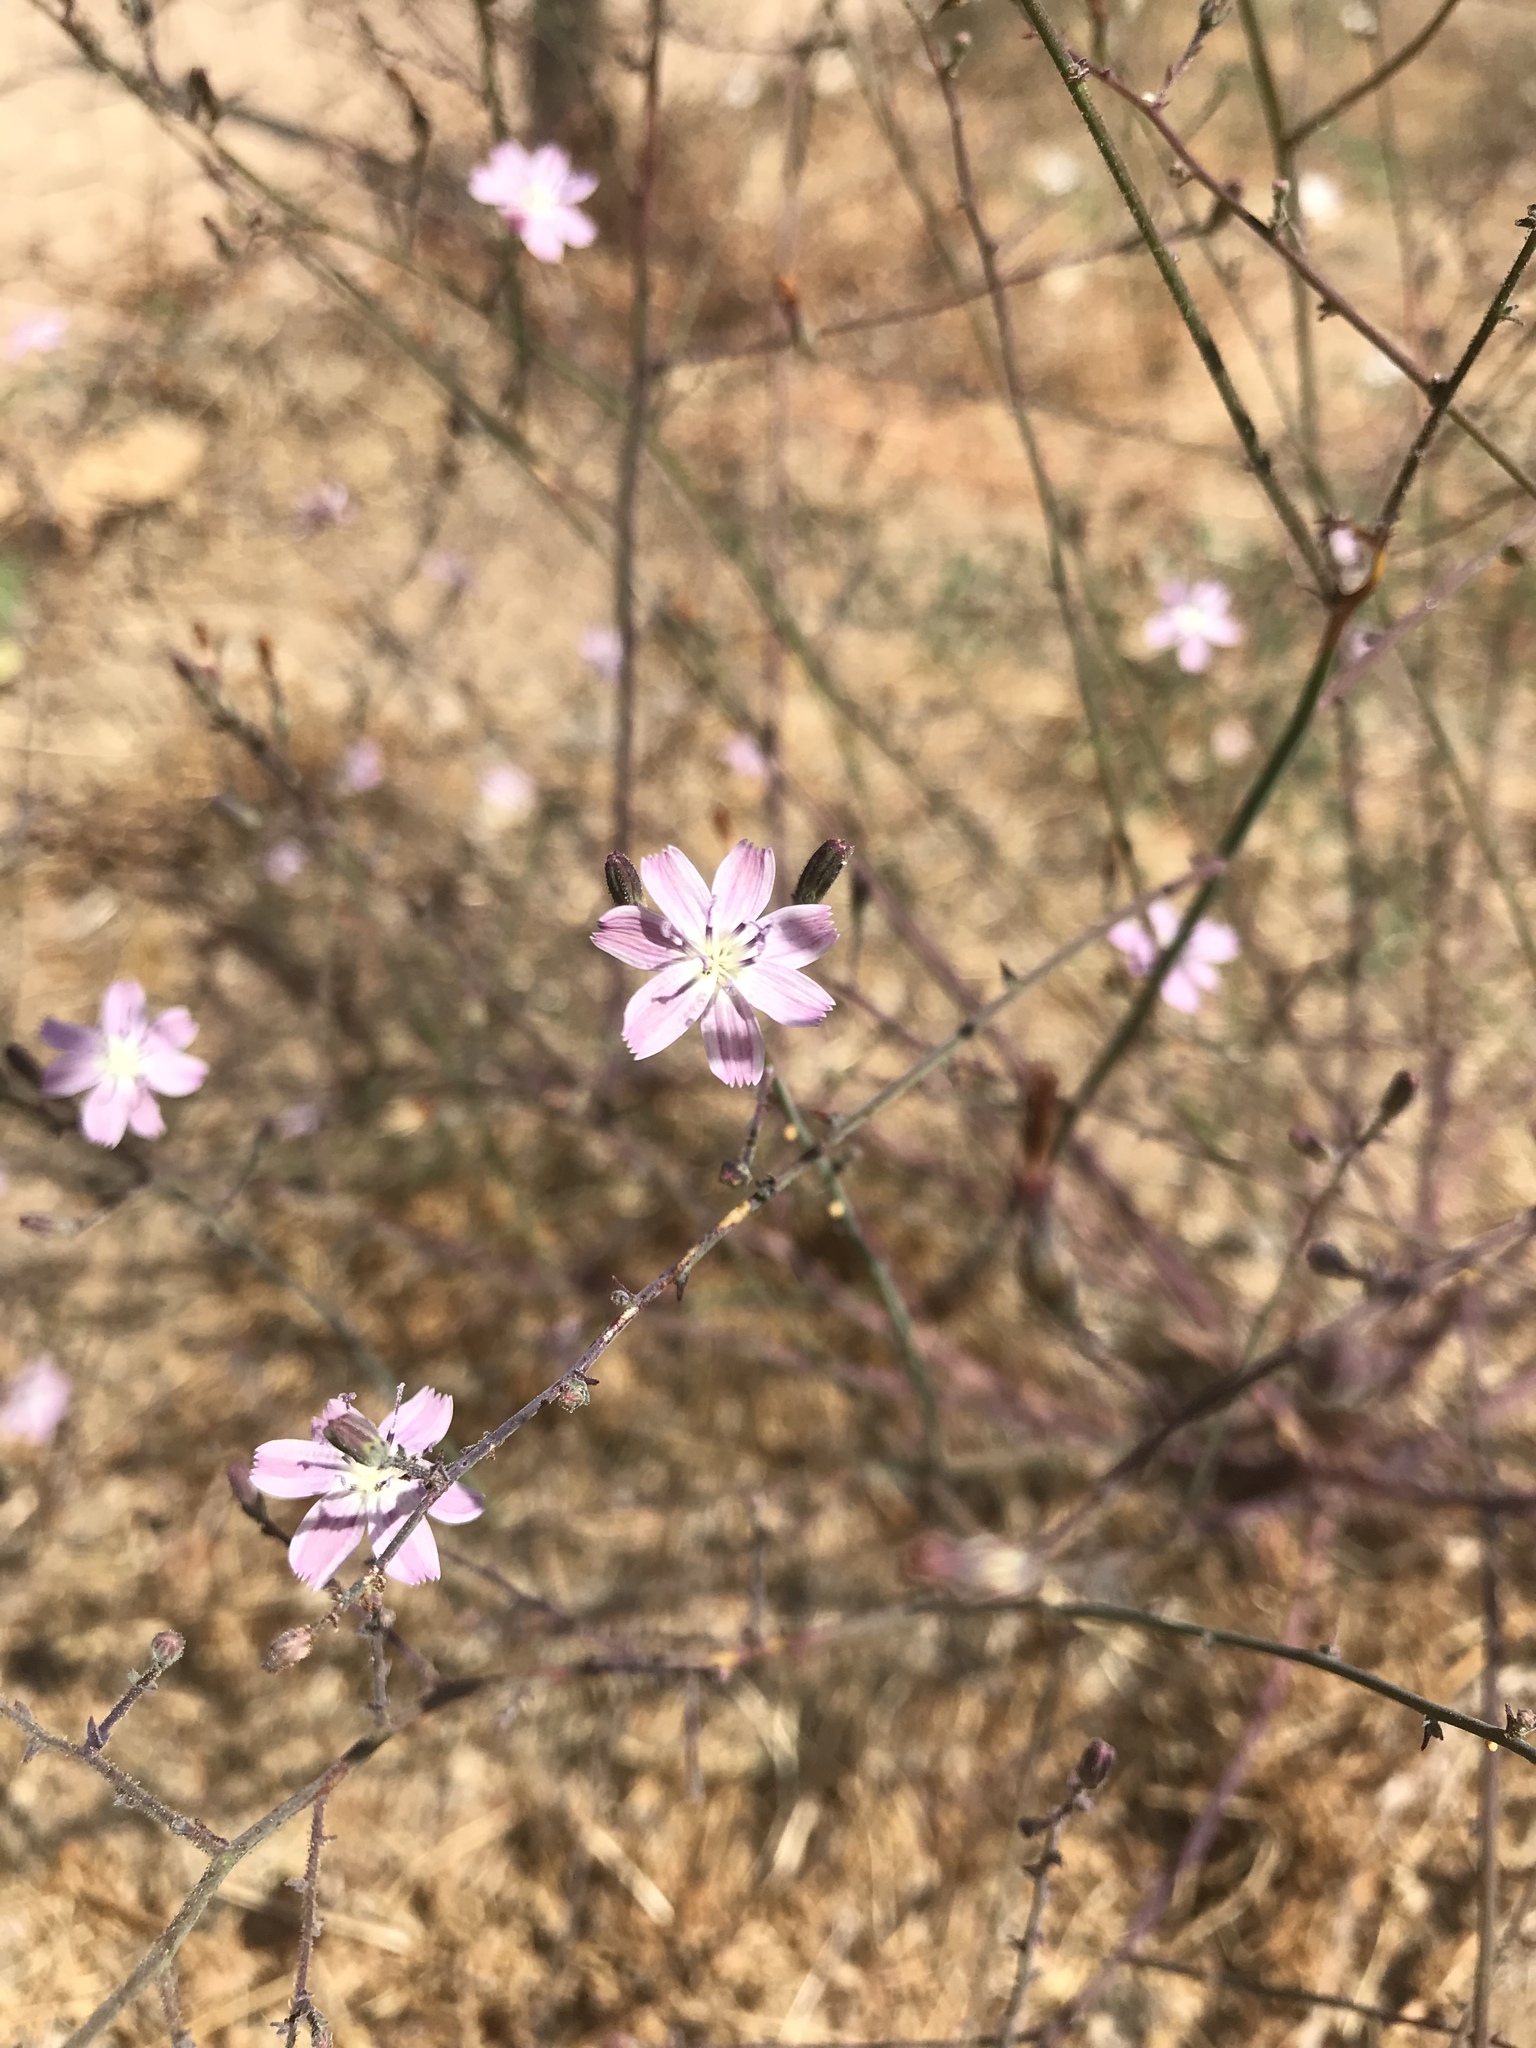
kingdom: Plantae
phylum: Tracheophyta
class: Magnoliopsida
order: Asterales
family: Asteraceae
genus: Stephanomeria
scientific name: Stephanomeria exigua
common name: Small wirelettuce
